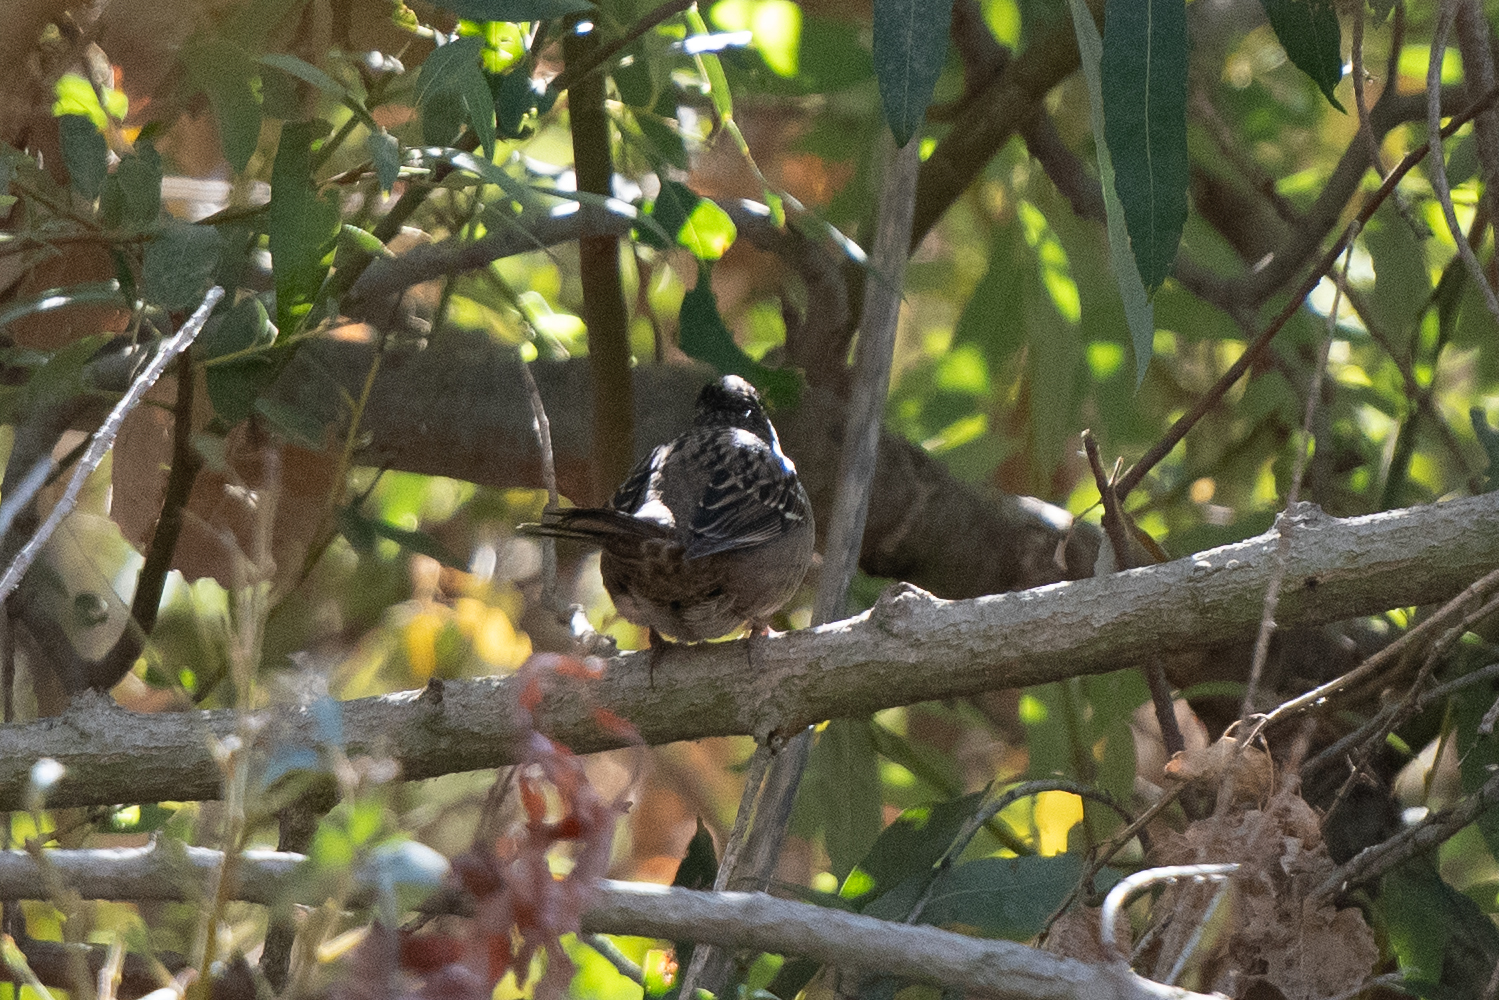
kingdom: Animalia
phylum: Chordata
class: Aves
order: Passeriformes
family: Passerellidae
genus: Zonotrichia
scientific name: Zonotrichia atricapilla
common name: Golden-crowned sparrow
